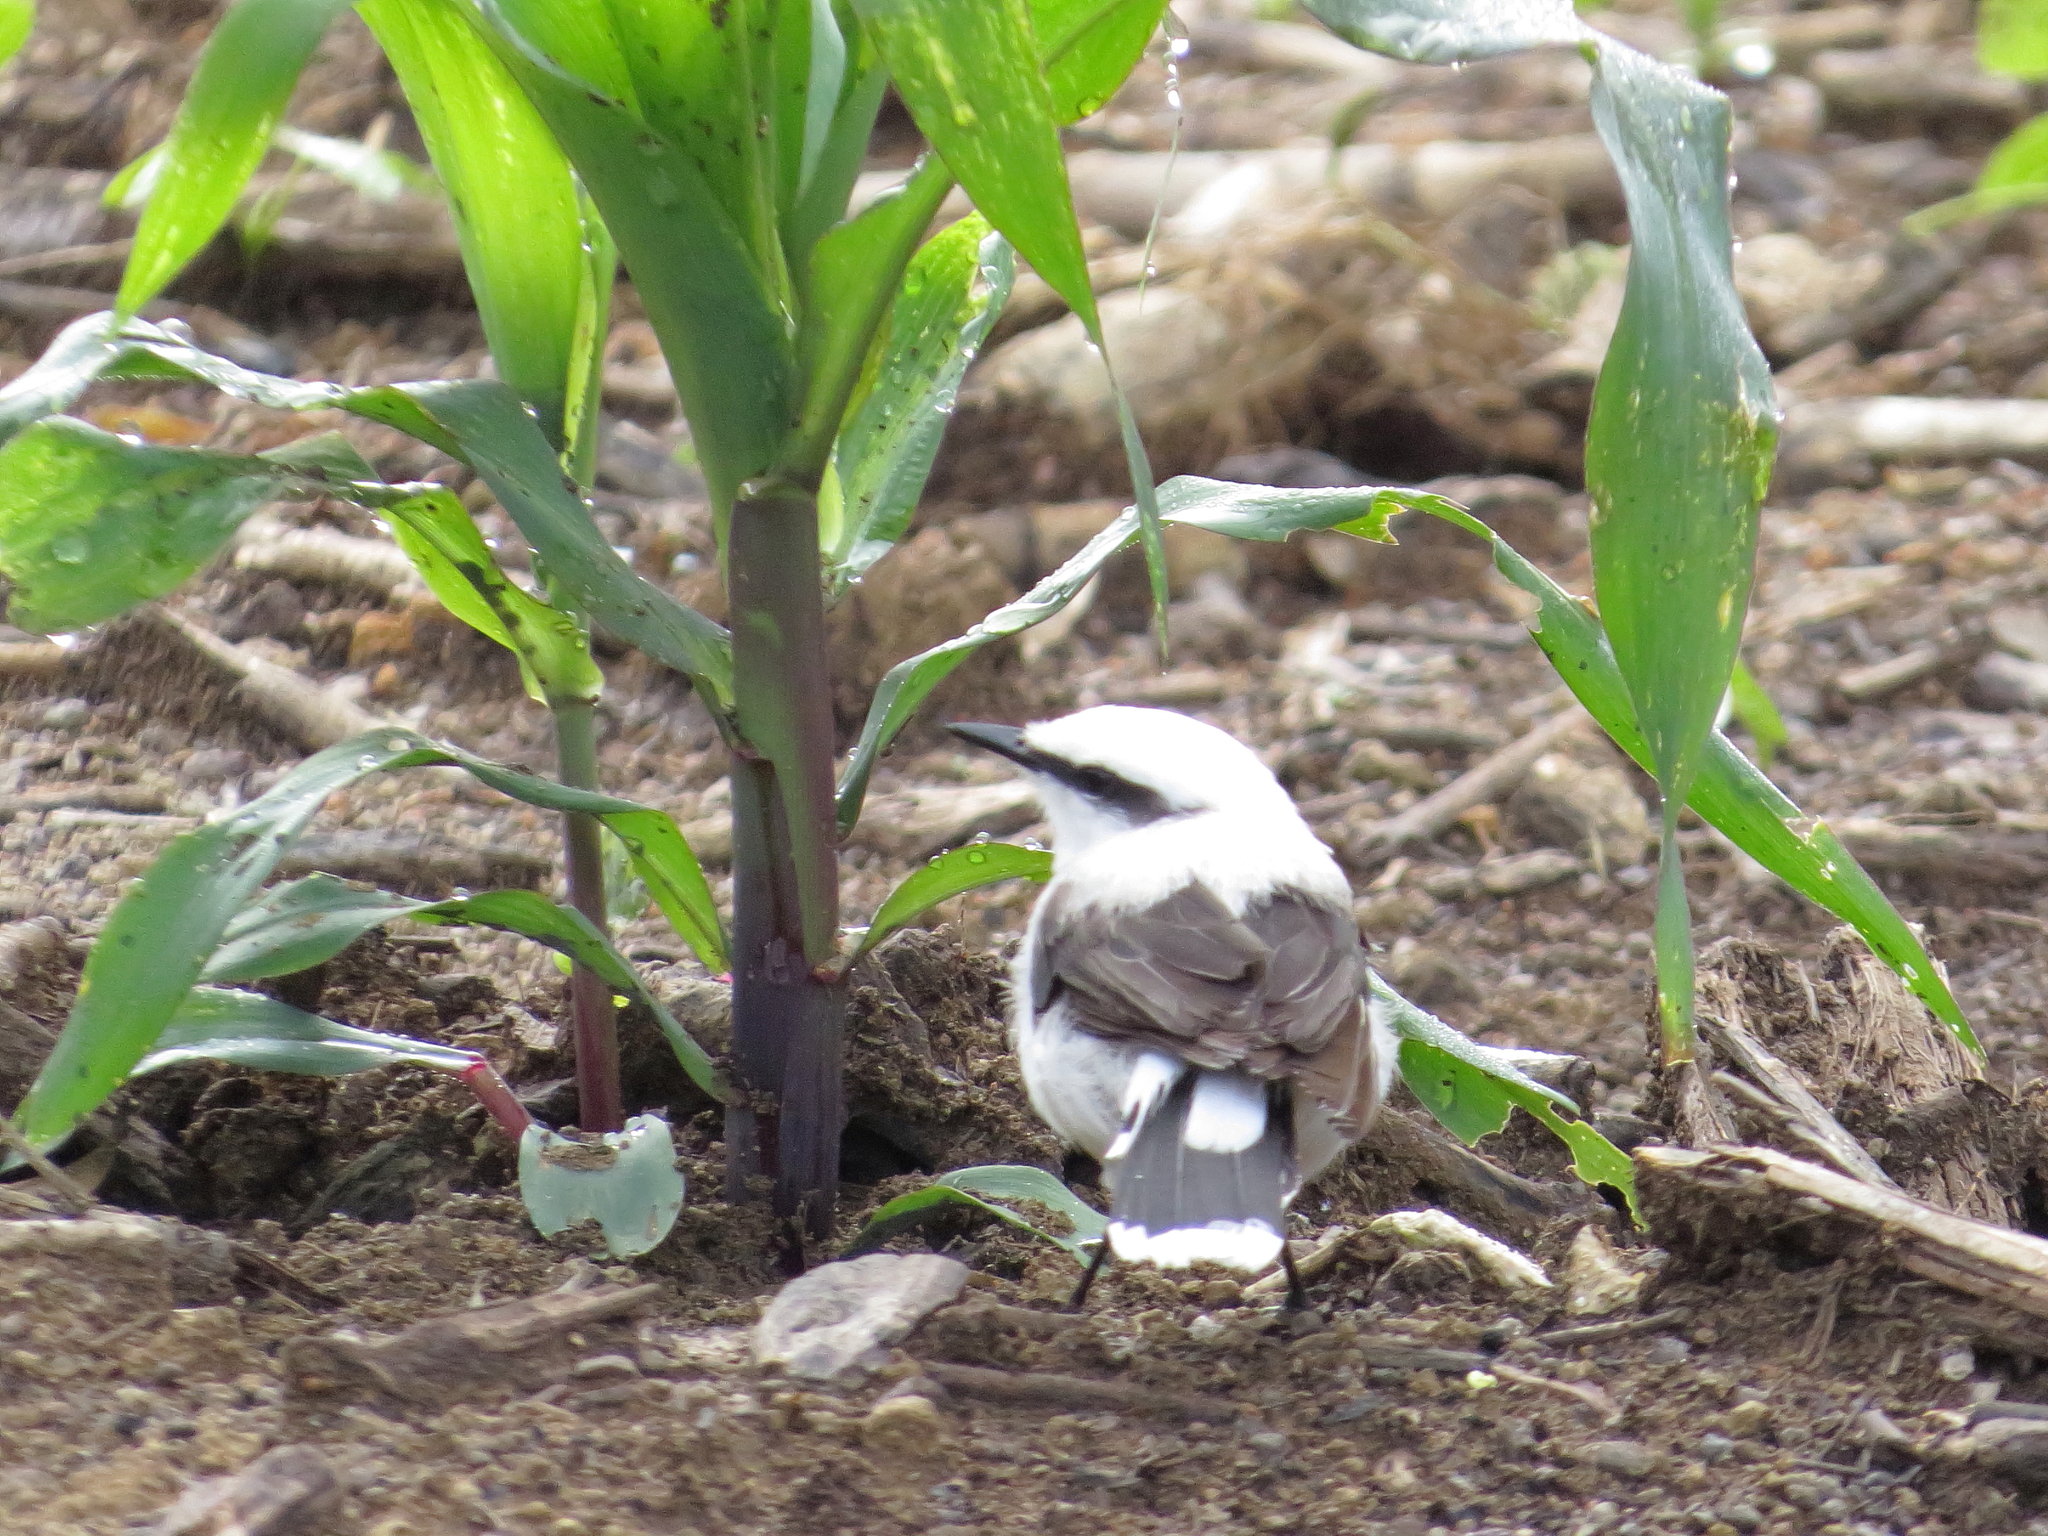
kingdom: Animalia
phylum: Chordata
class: Aves
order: Passeriformes
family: Tyrannidae
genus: Fluvicola
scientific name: Fluvicola nengeta
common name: Masked water tyrant
